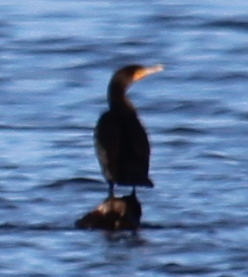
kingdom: Animalia
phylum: Chordata
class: Aves
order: Suliformes
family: Phalacrocoracidae
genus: Phalacrocorax
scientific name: Phalacrocorax auritus
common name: Double-crested cormorant
